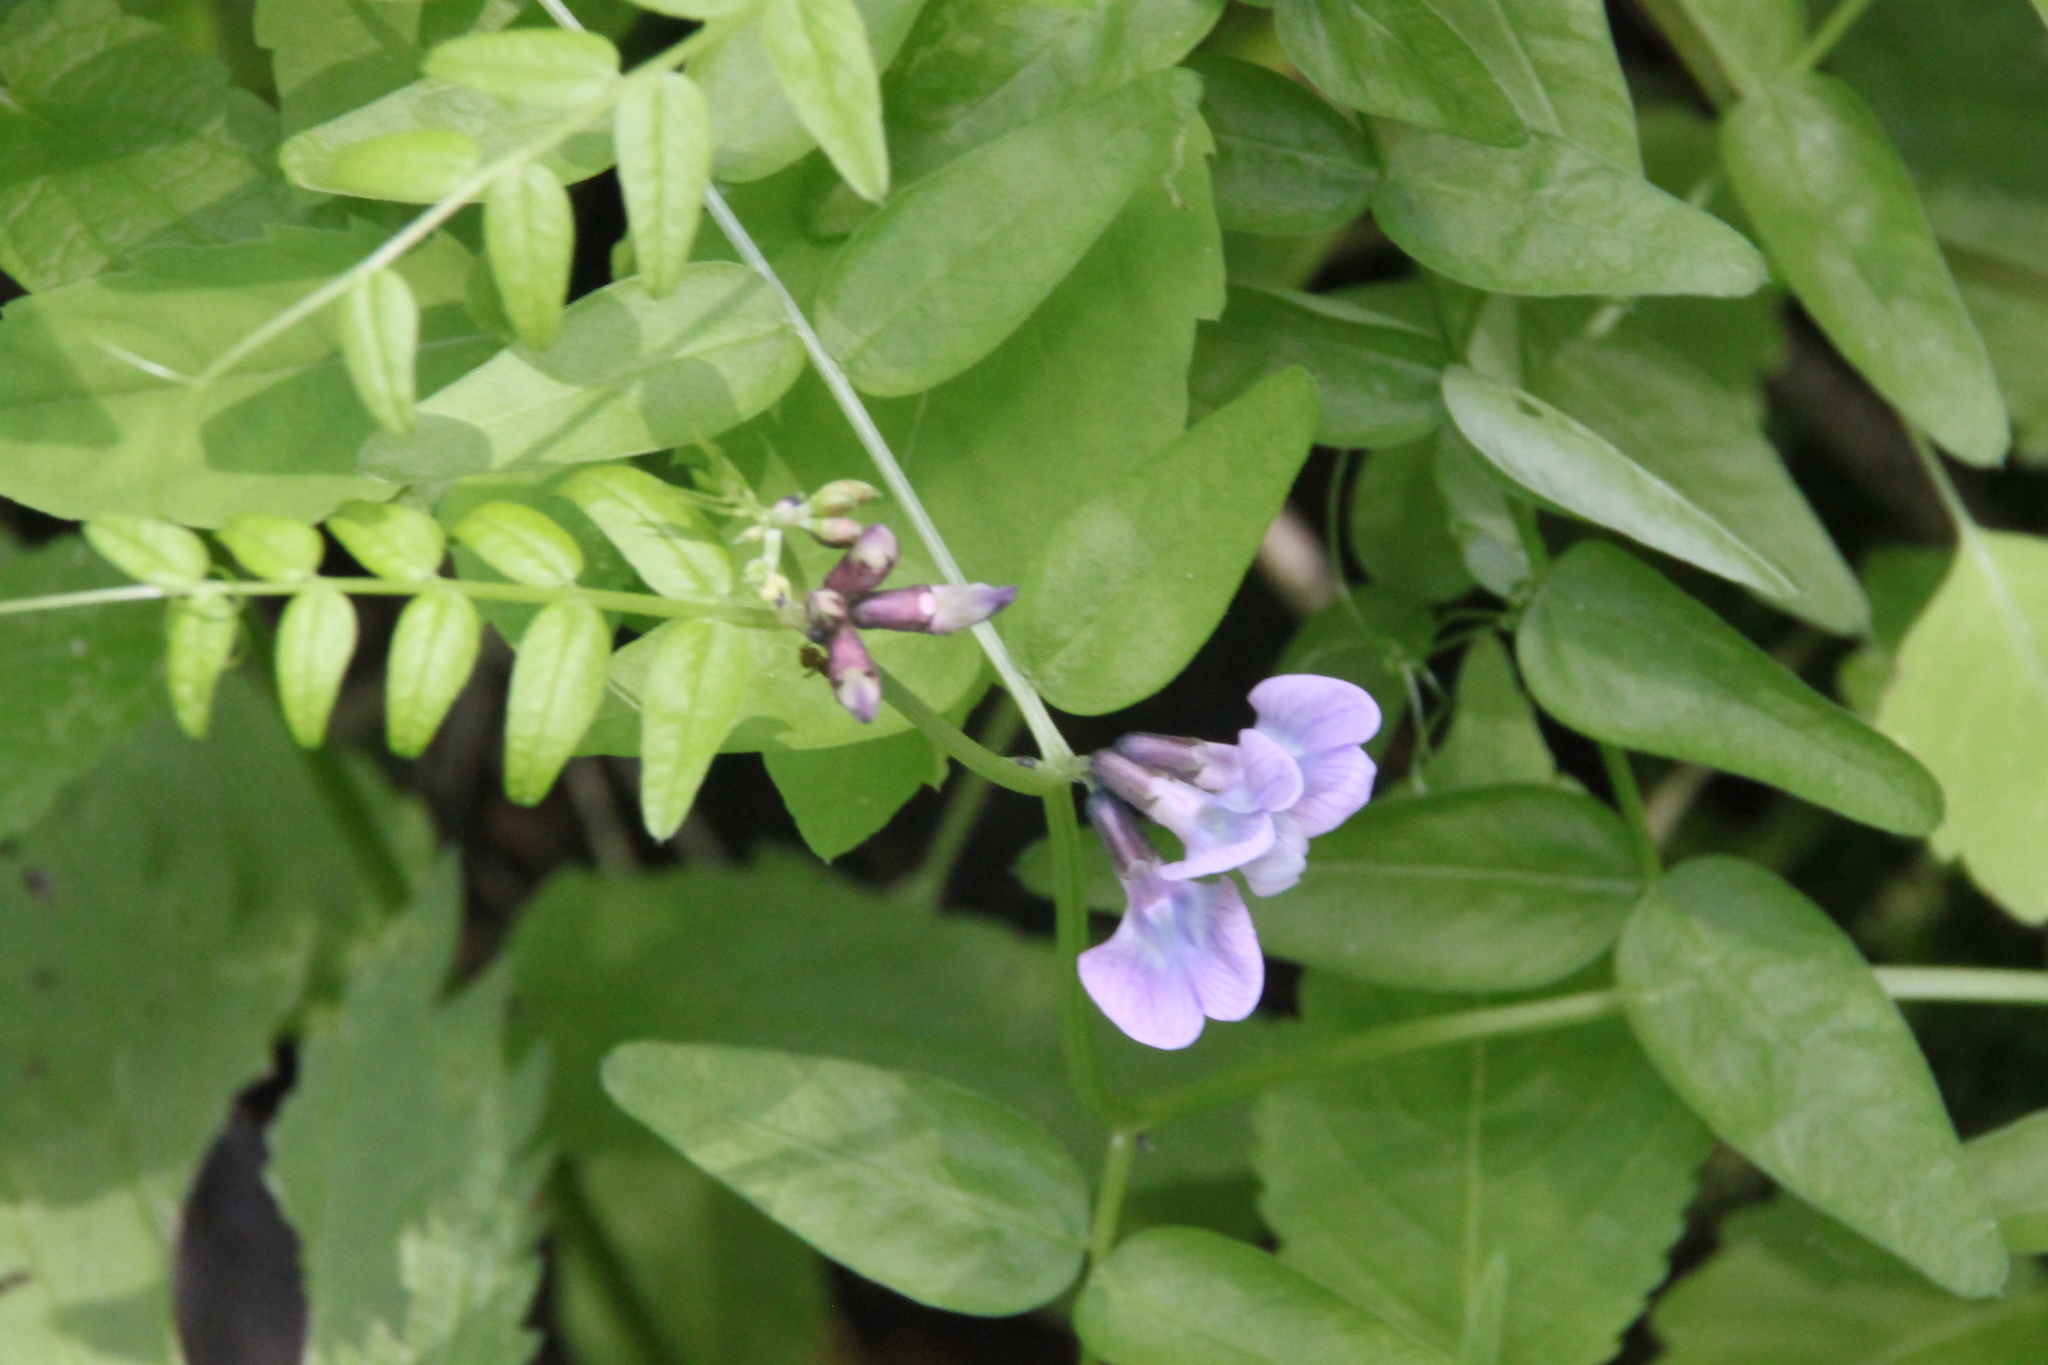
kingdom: Plantae
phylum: Tracheophyta
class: Magnoliopsida
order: Fabales
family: Fabaceae
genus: Vicia
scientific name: Vicia sepium
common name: Bush vetch
